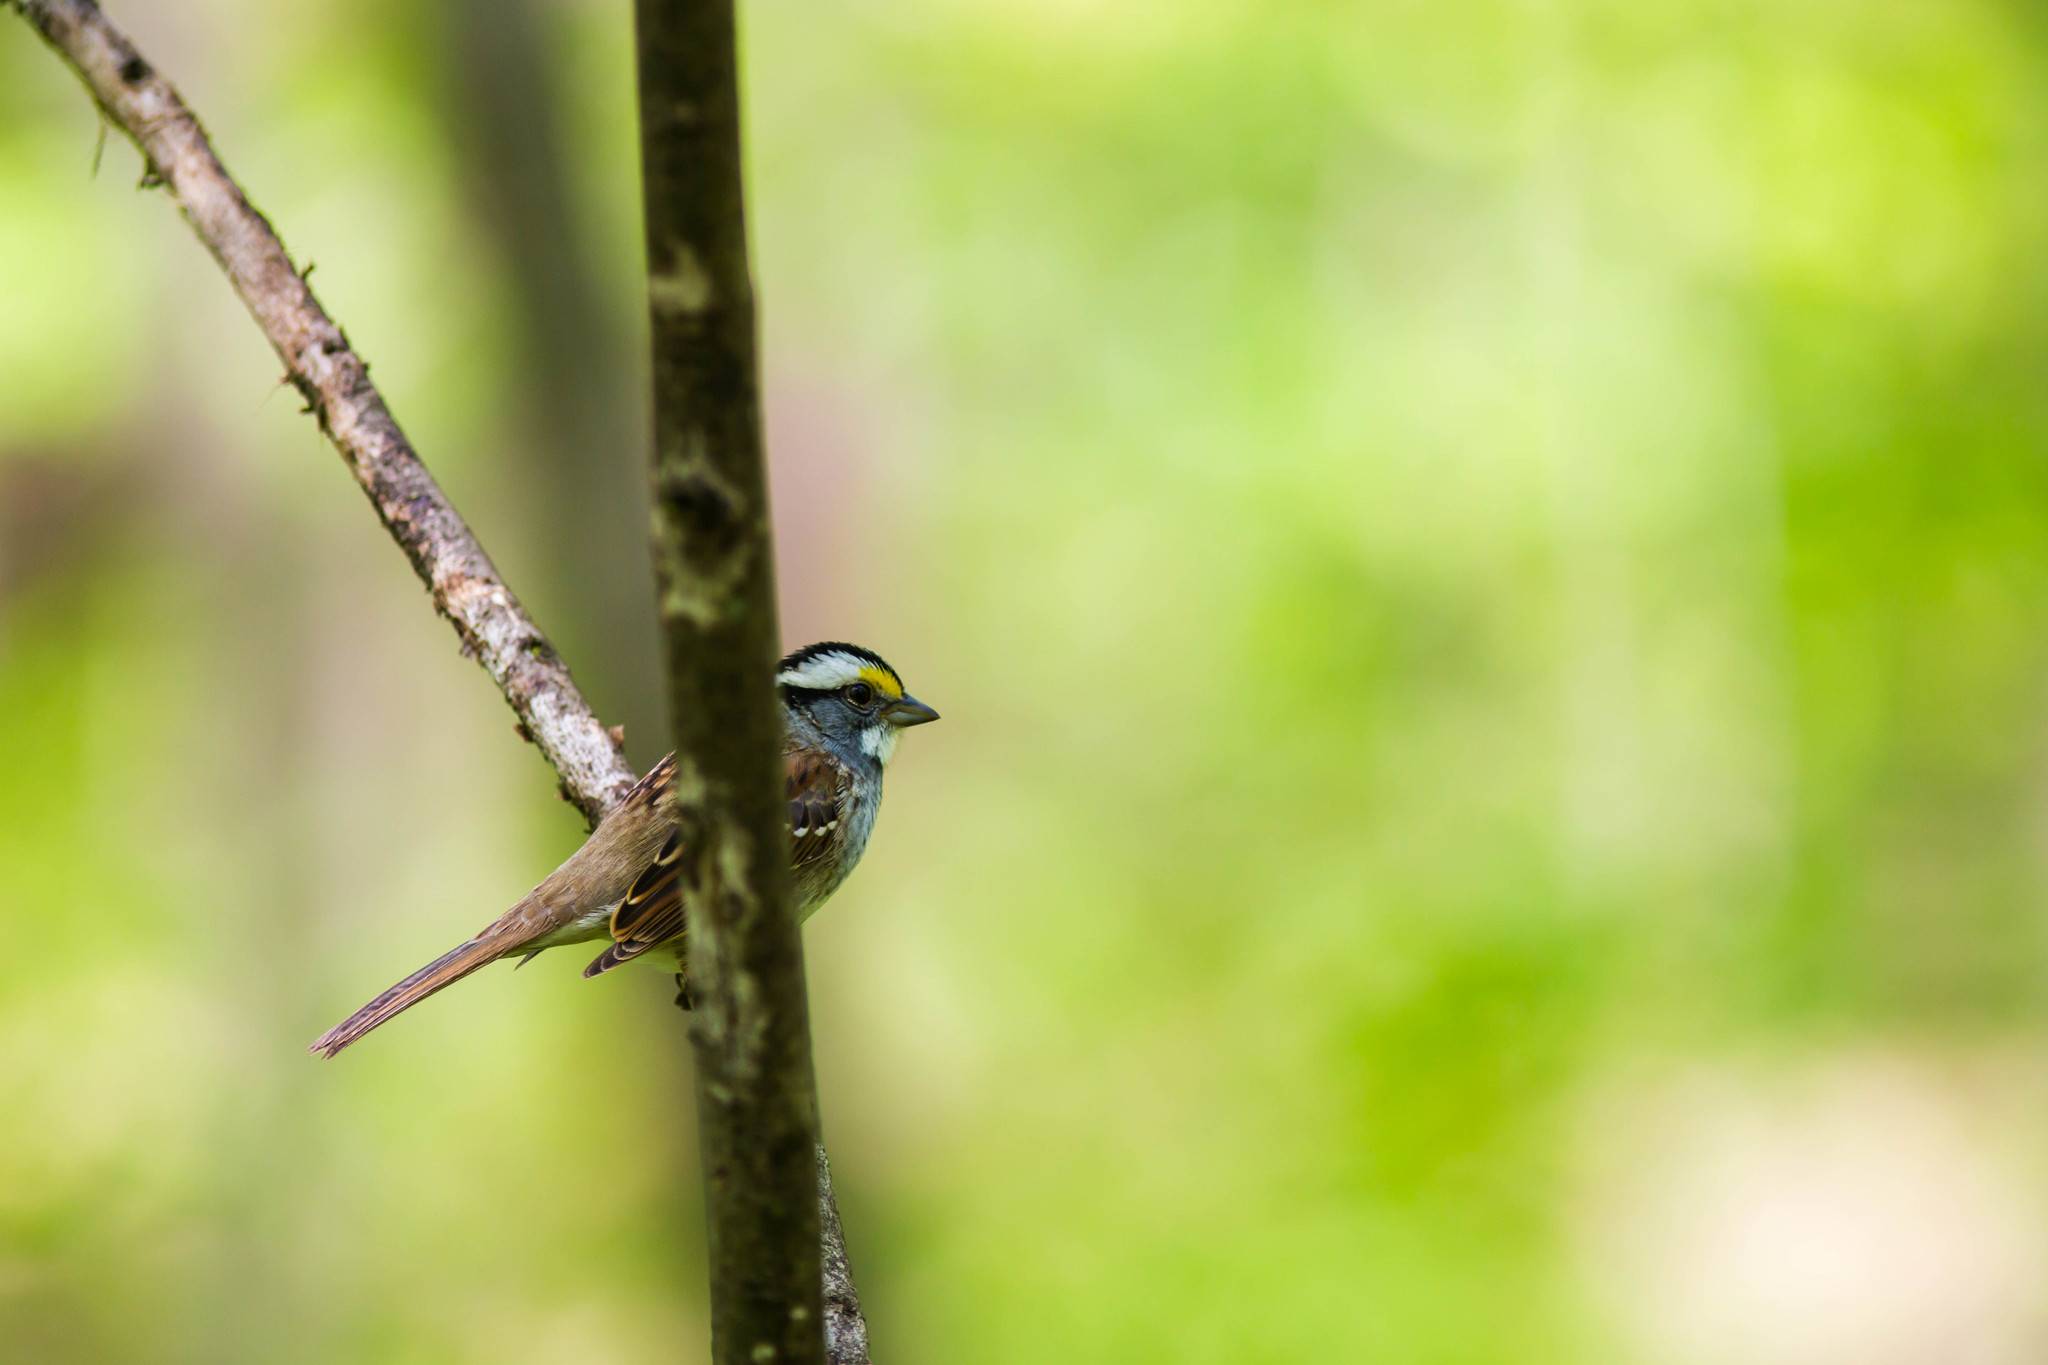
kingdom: Animalia
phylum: Chordata
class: Aves
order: Passeriformes
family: Passerellidae
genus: Zonotrichia
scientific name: Zonotrichia albicollis
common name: White-throated sparrow
